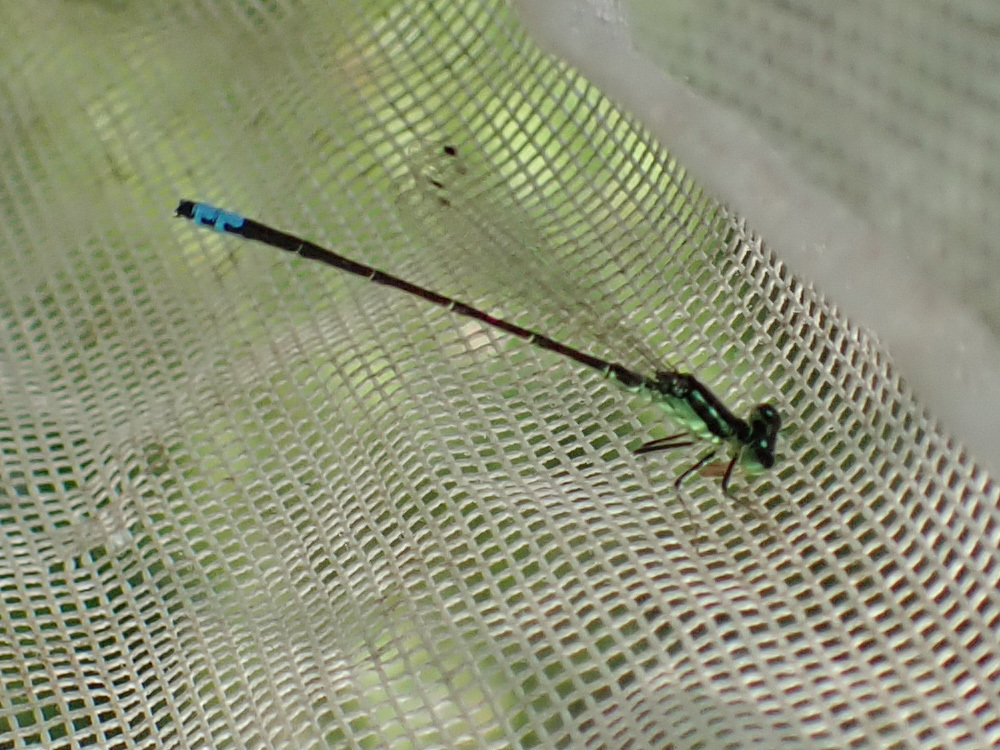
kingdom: Animalia
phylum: Arthropoda
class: Insecta
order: Odonata
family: Coenagrionidae
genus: Ischnura
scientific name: Ischnura verticalis
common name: Eastern forktail
